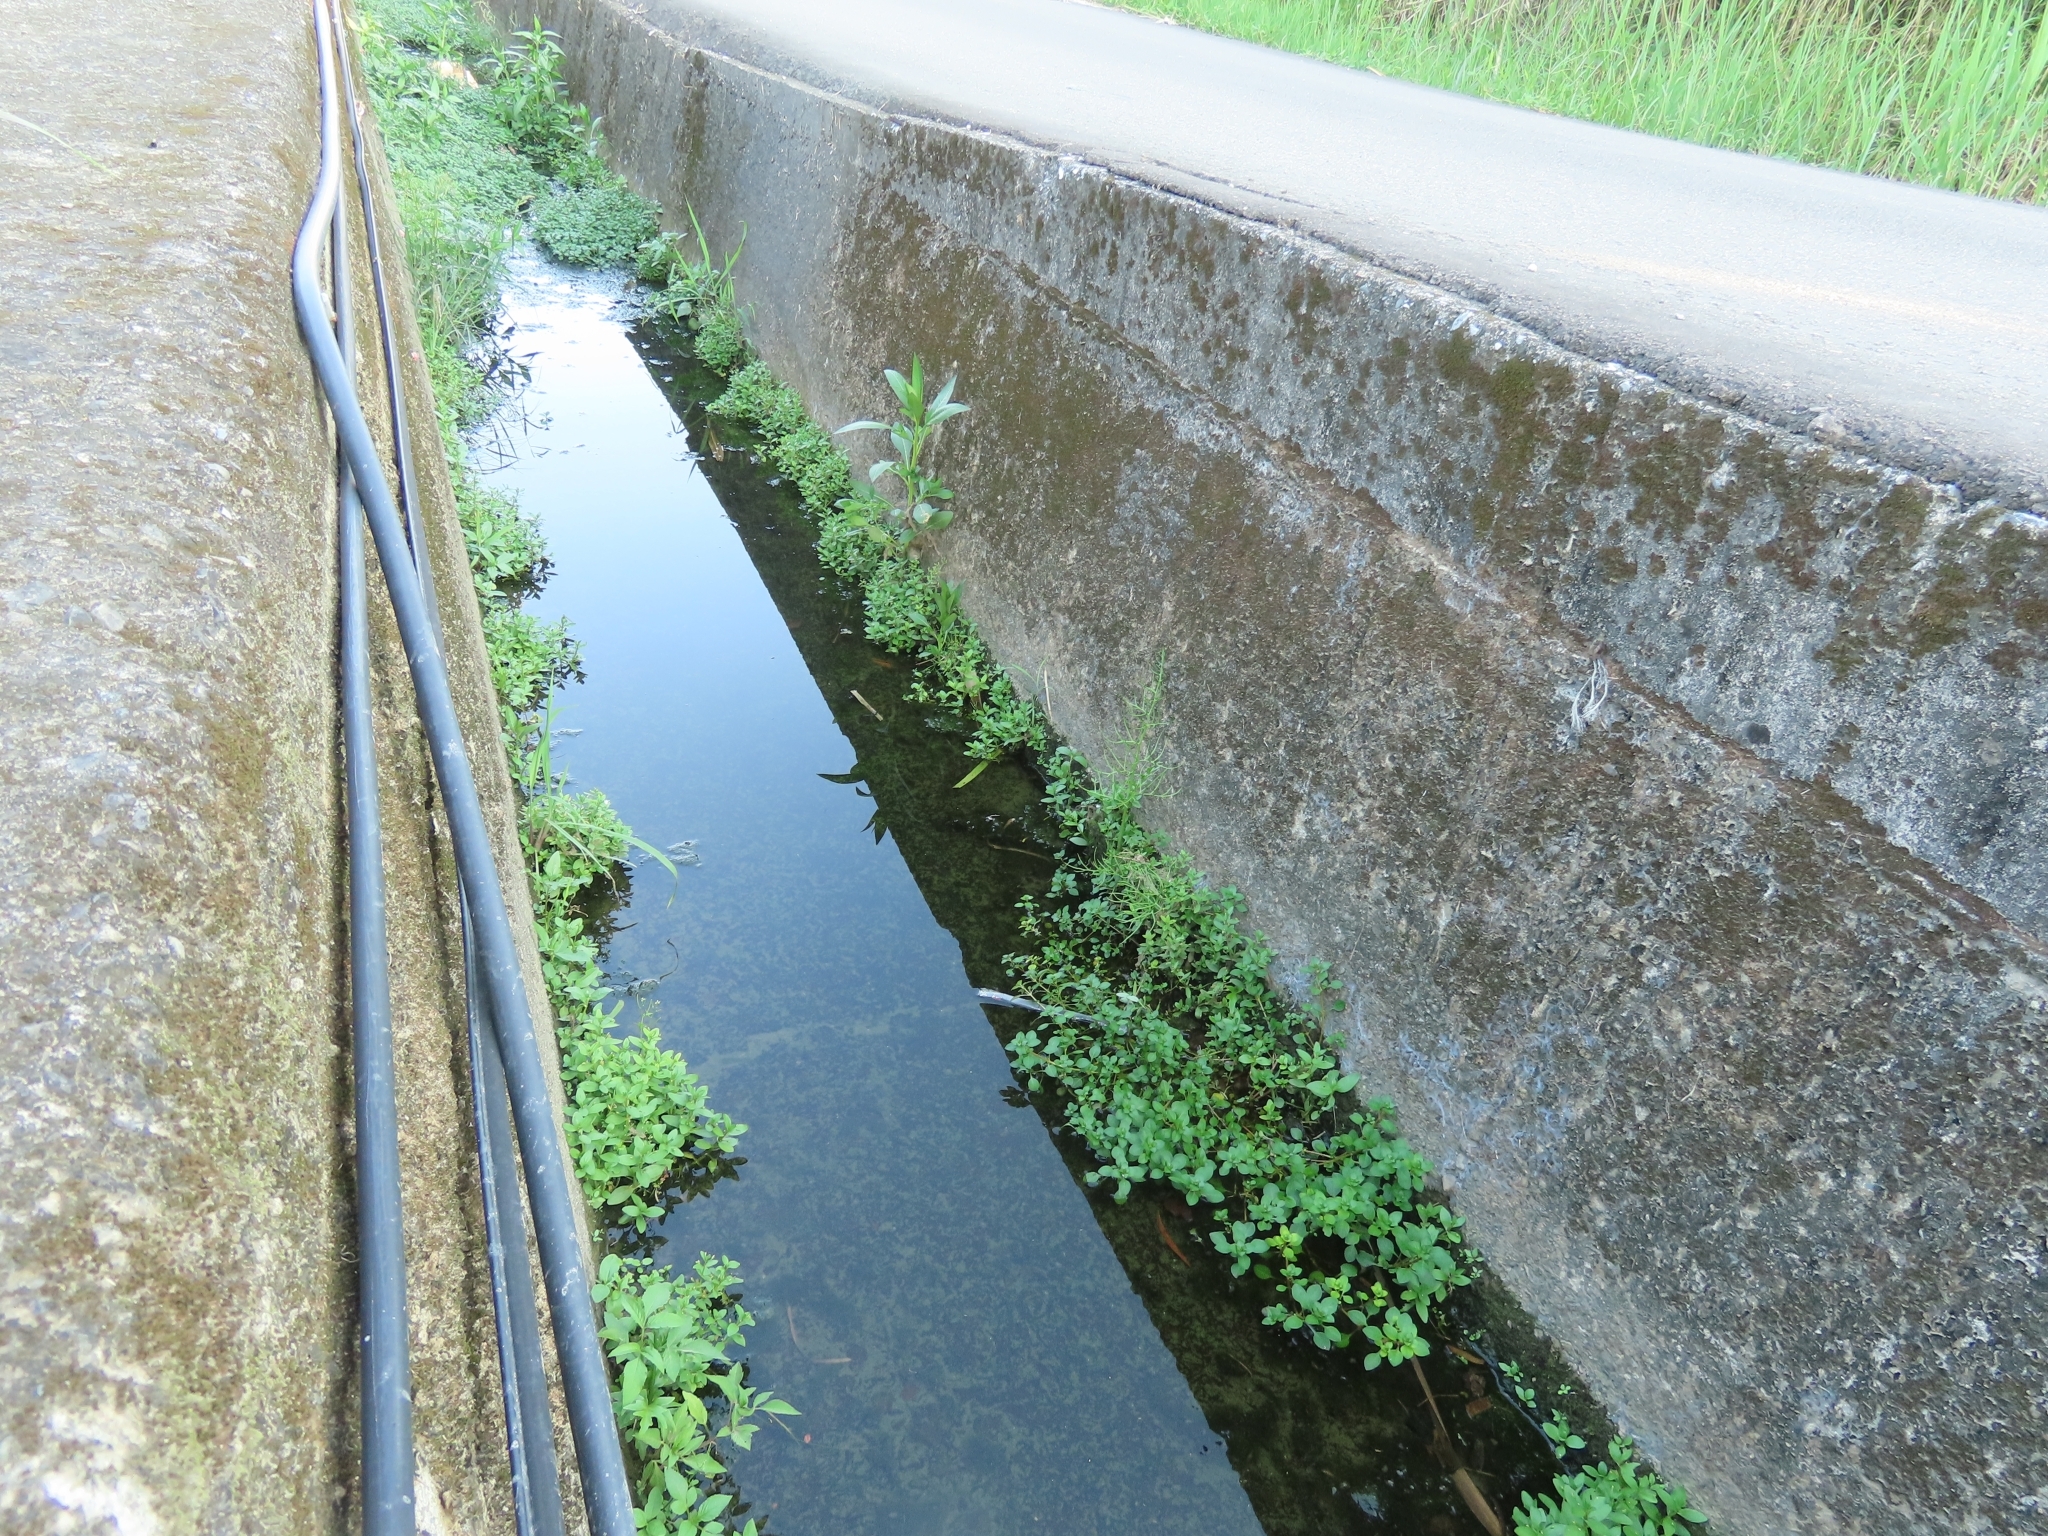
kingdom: Plantae
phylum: Tracheophyta
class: Polypodiopsida
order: Polypodiales
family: Pteridaceae
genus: Ceratopteris
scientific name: Ceratopteris thalictroides
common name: Water fern
